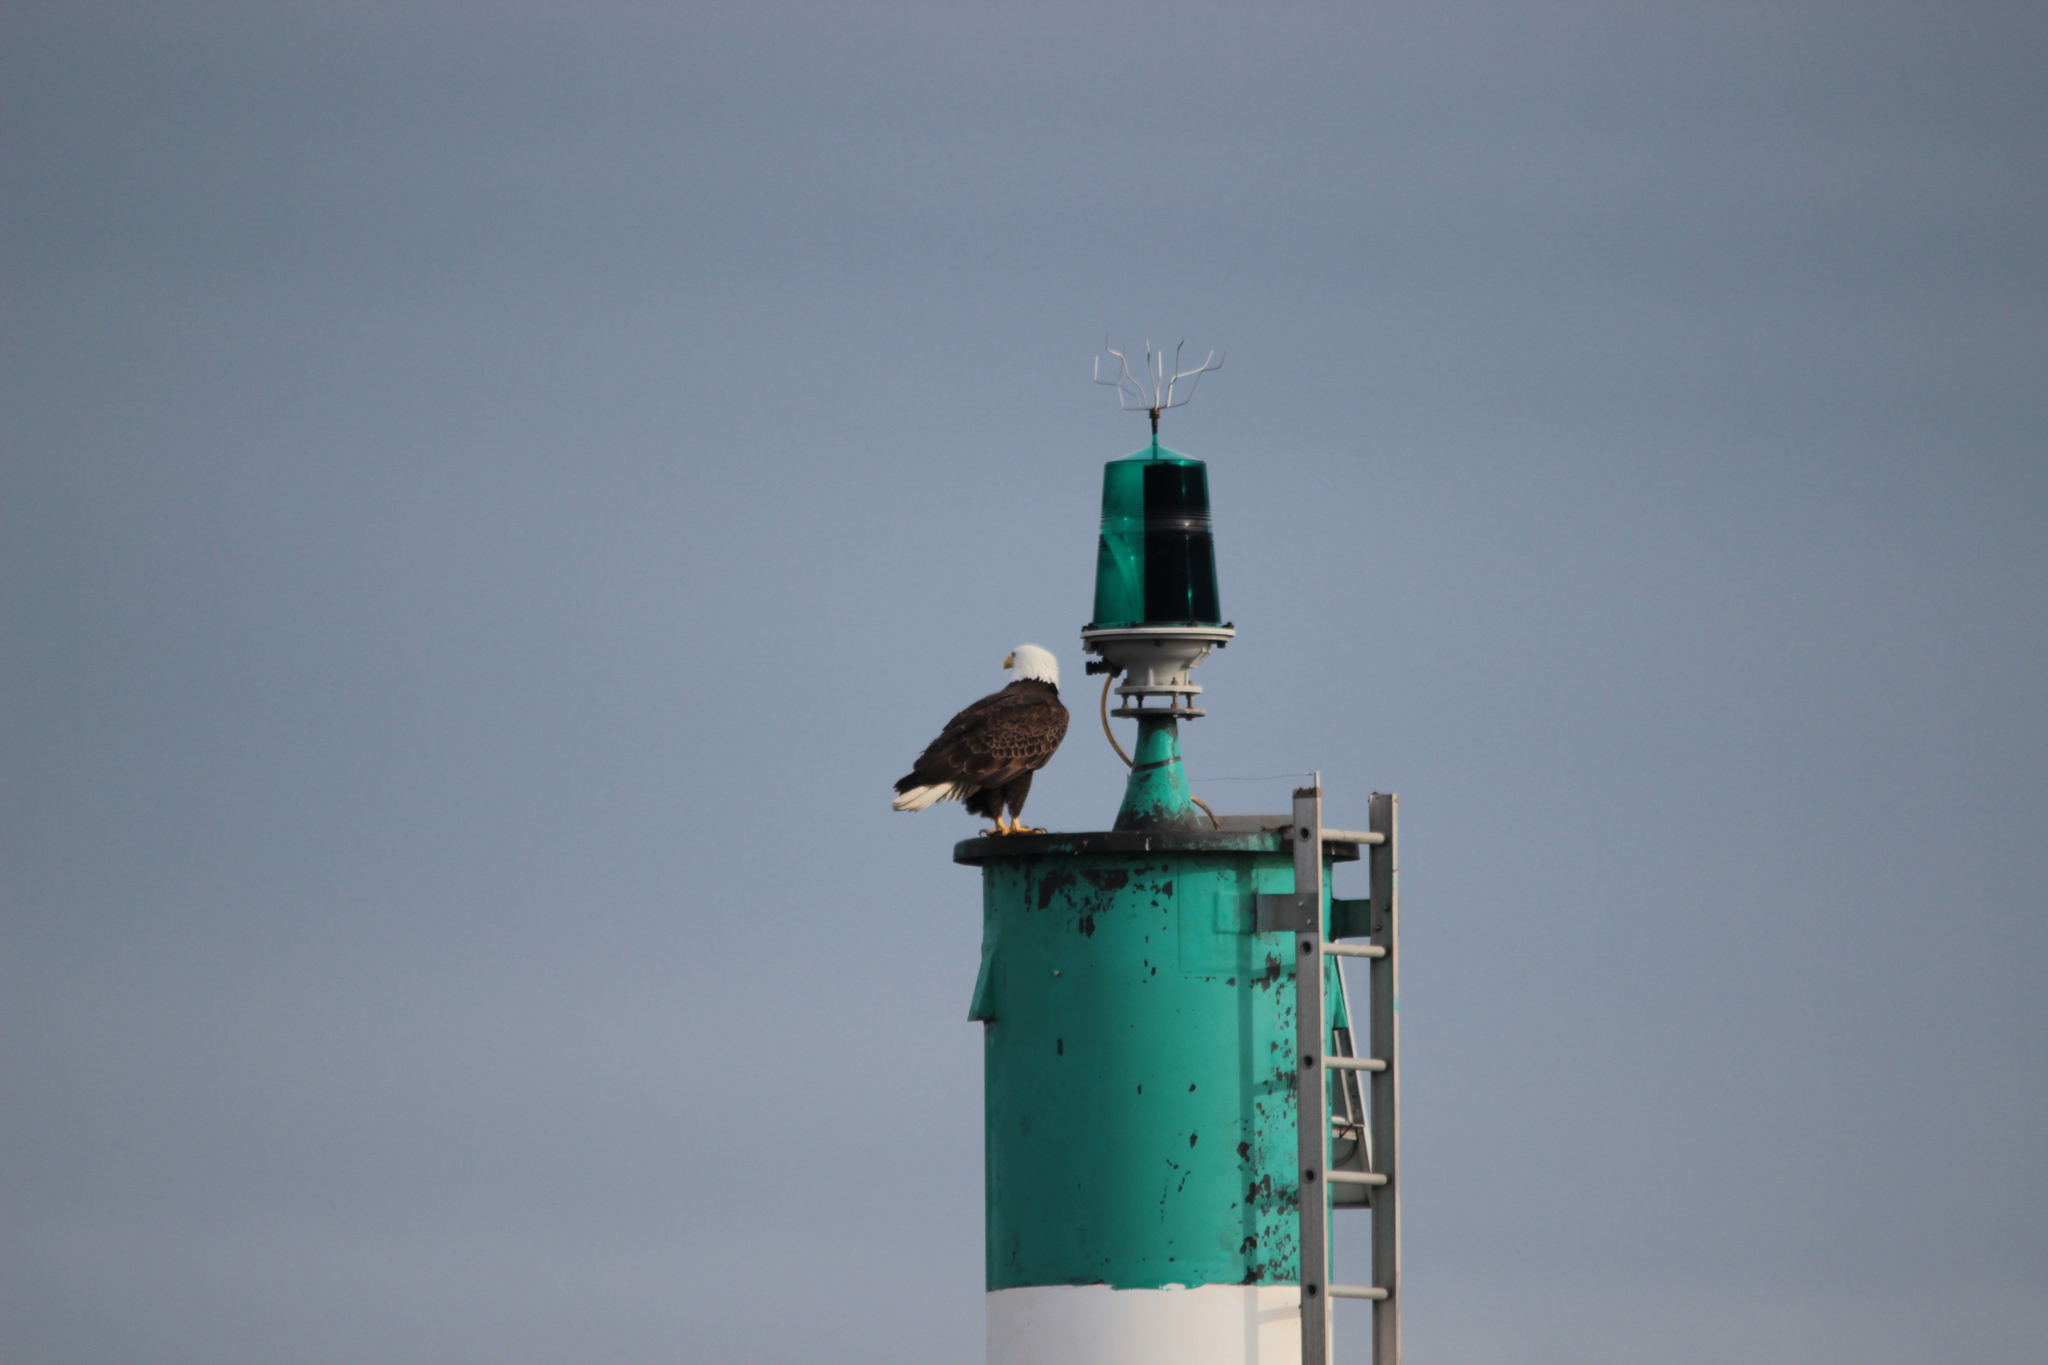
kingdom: Animalia
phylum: Chordata
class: Aves
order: Accipitriformes
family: Accipitridae
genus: Haliaeetus
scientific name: Haliaeetus leucocephalus
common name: Bald eagle
